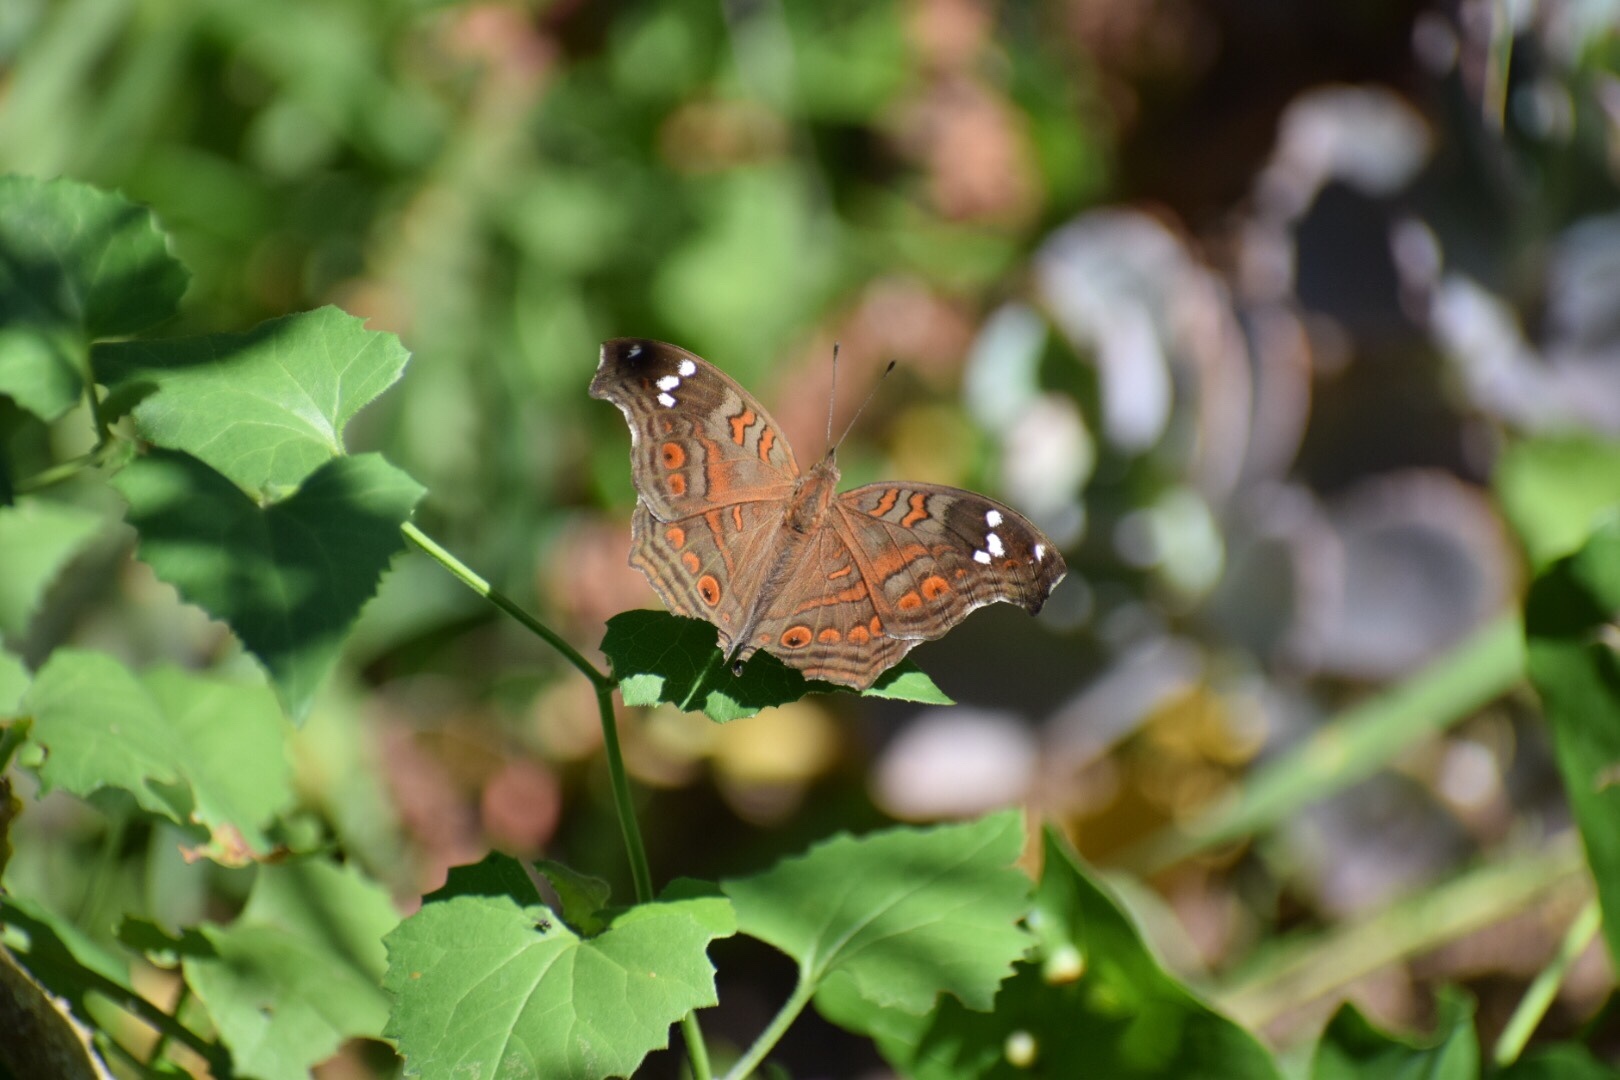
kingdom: Animalia
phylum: Arthropoda
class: Insecta
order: Lepidoptera
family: Nymphalidae
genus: Junonia
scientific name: Junonia natalica
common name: Brown pansy
